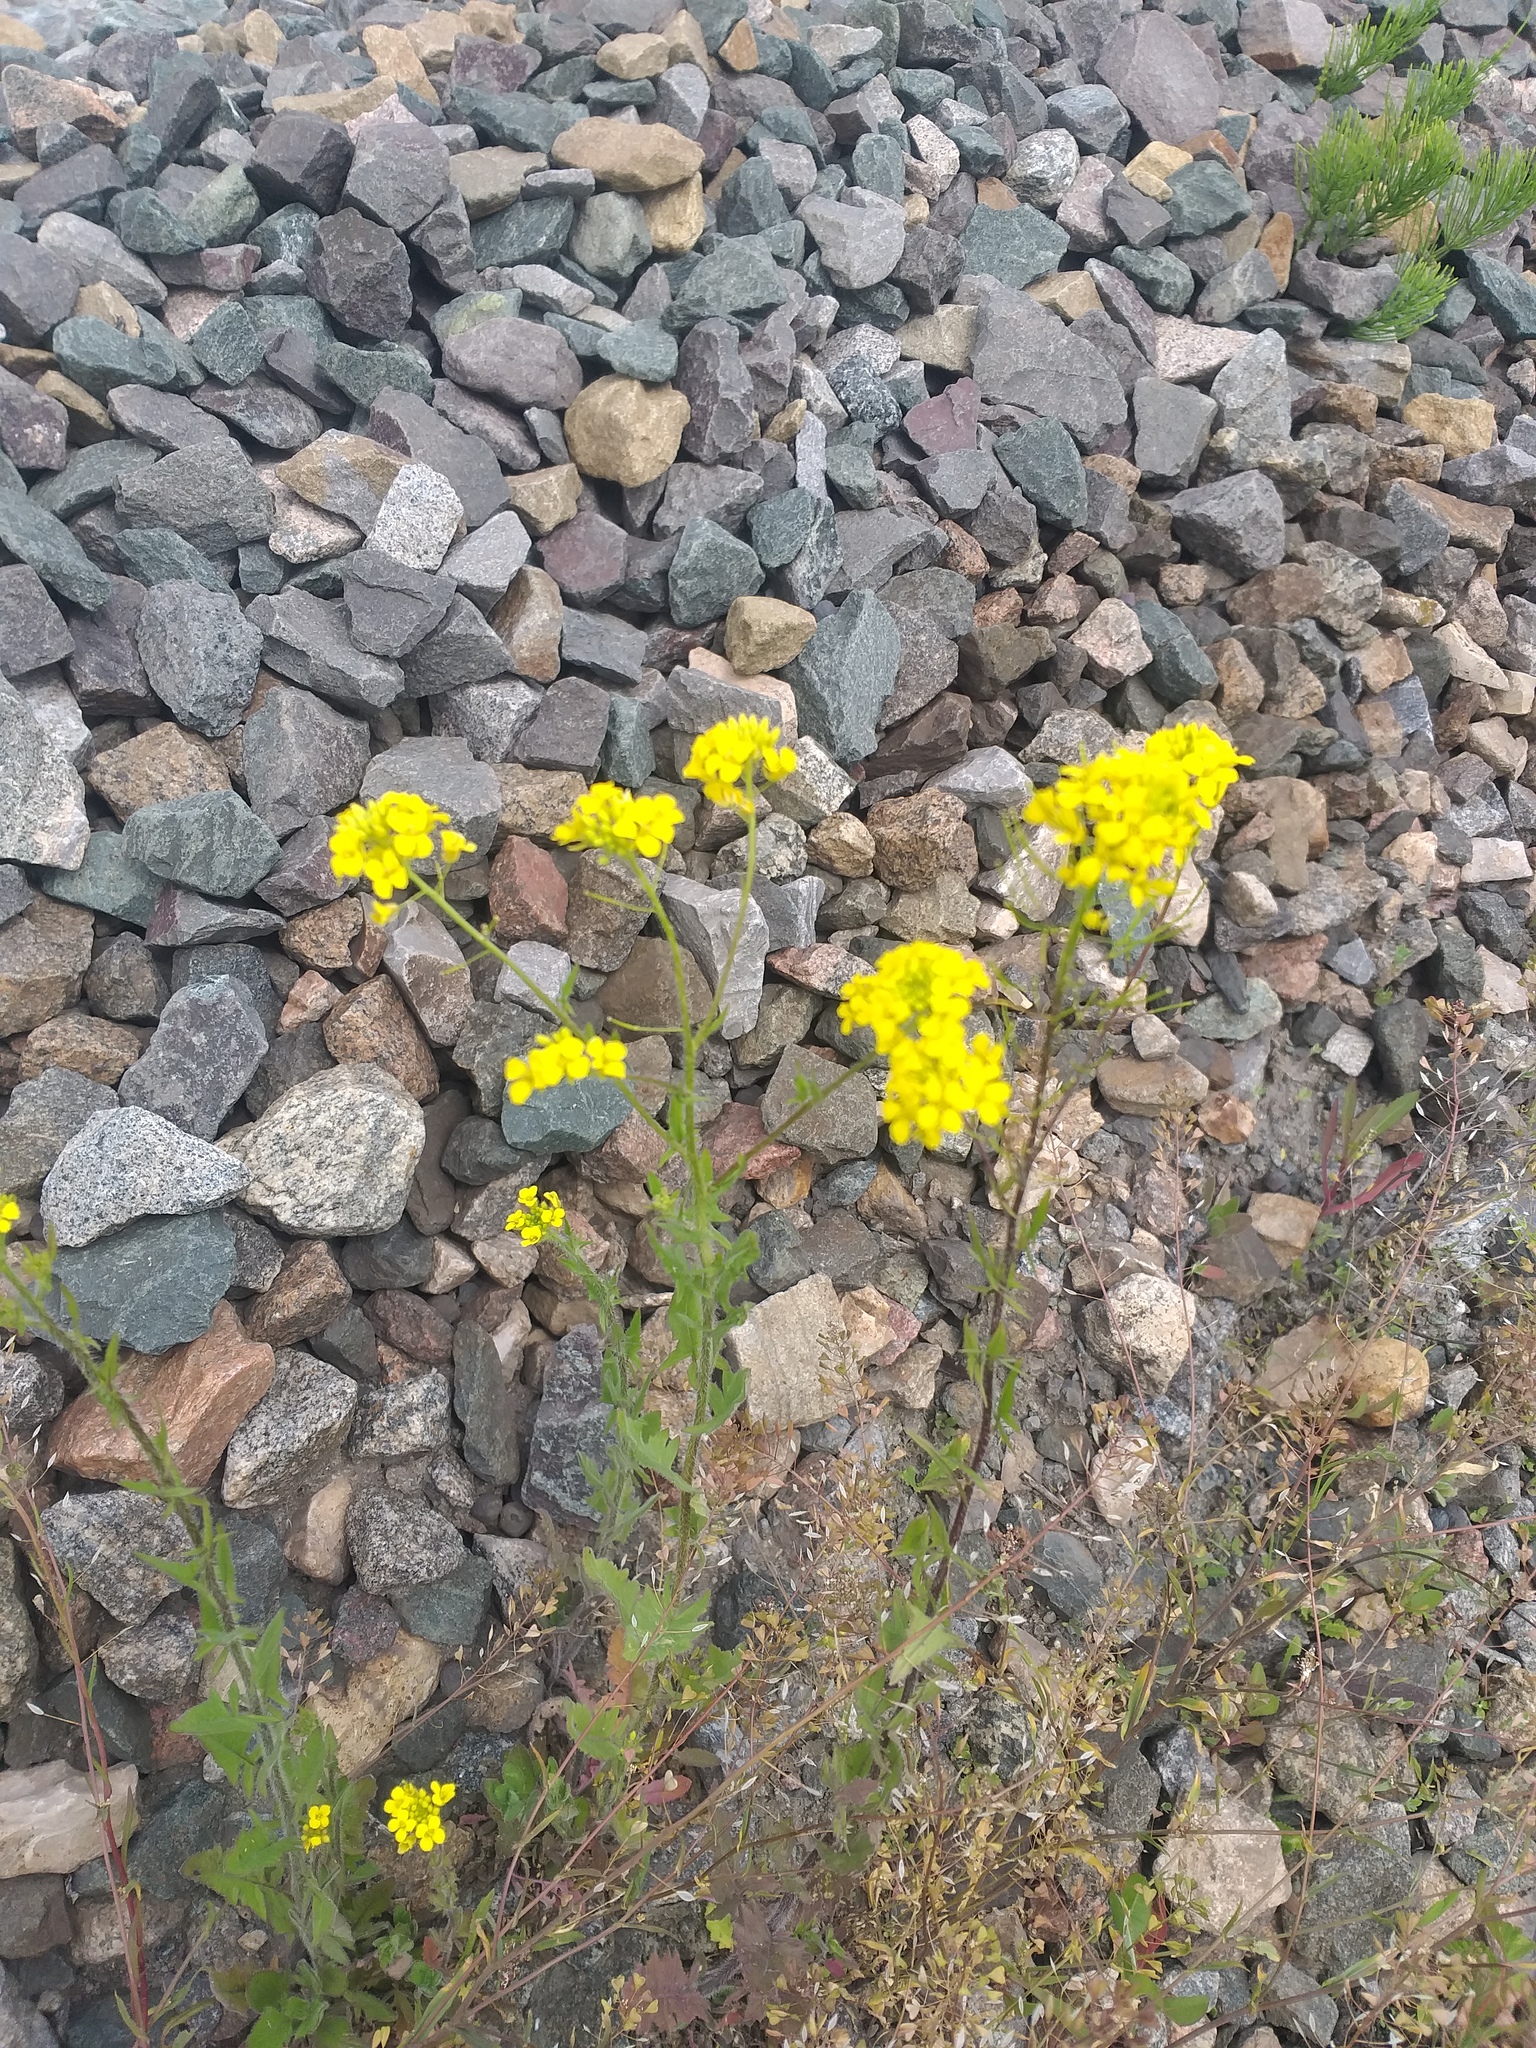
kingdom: Plantae
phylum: Tracheophyta
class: Magnoliopsida
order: Brassicales
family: Brassicaceae
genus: Sisymbrium
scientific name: Sisymbrium loeselii
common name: False london-rocket
